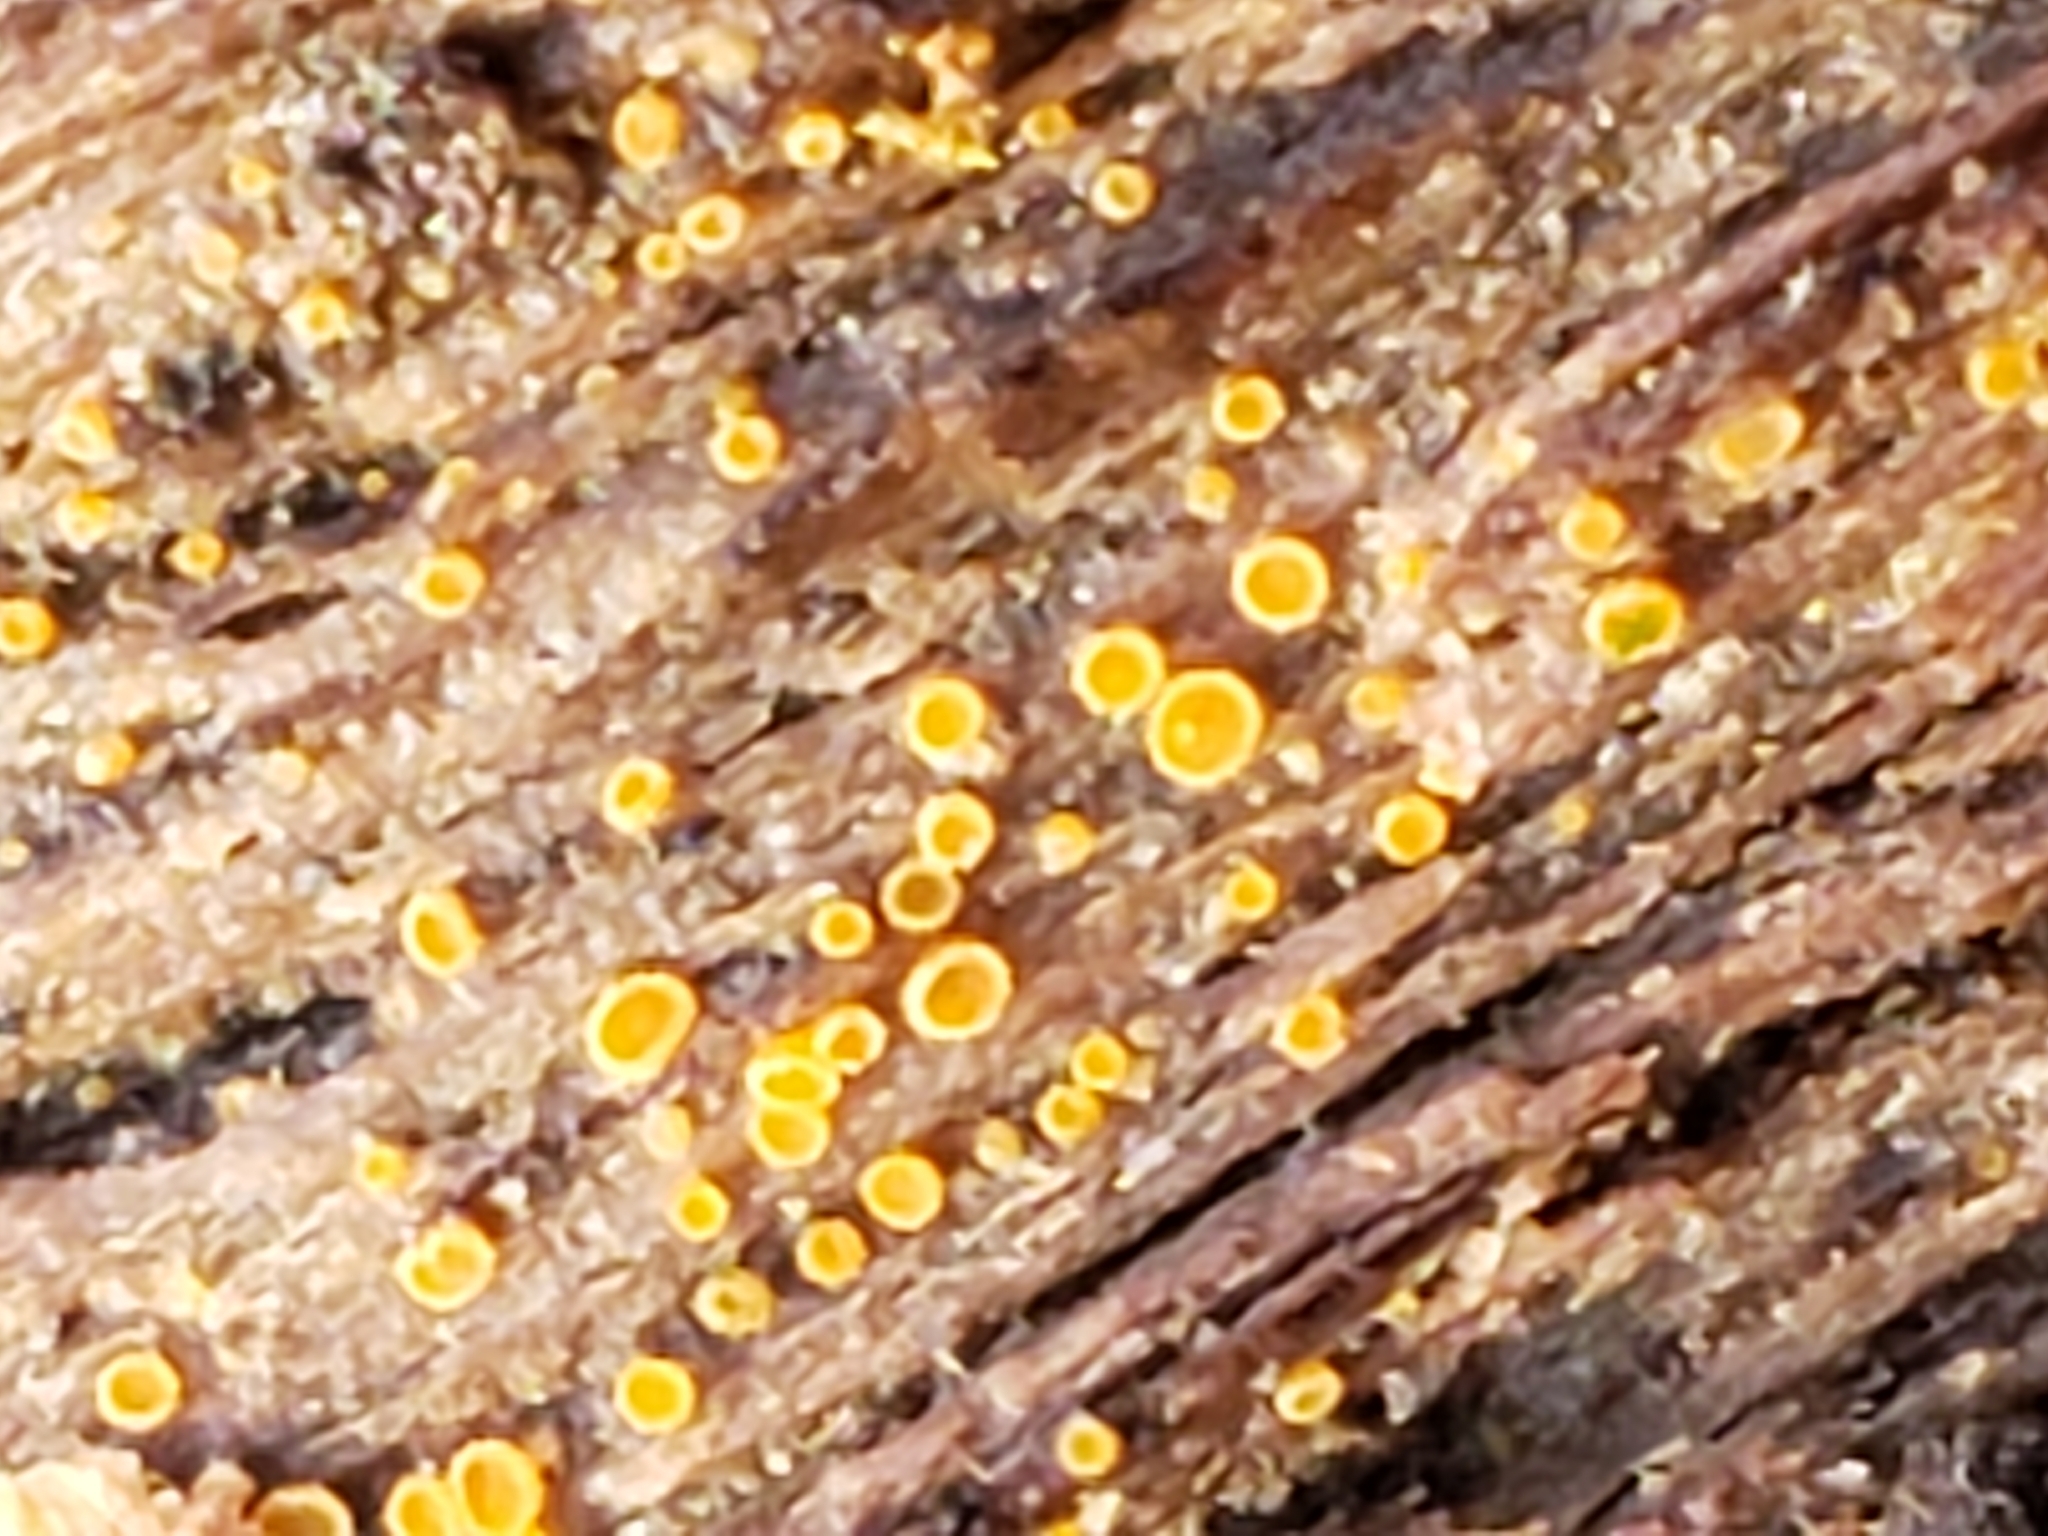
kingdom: Fungi
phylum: Ascomycota
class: Leotiomycetes
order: Helotiales
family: Arachnopezizaceae
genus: Arachnopeziza
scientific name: Arachnopeziza trabinelloides
